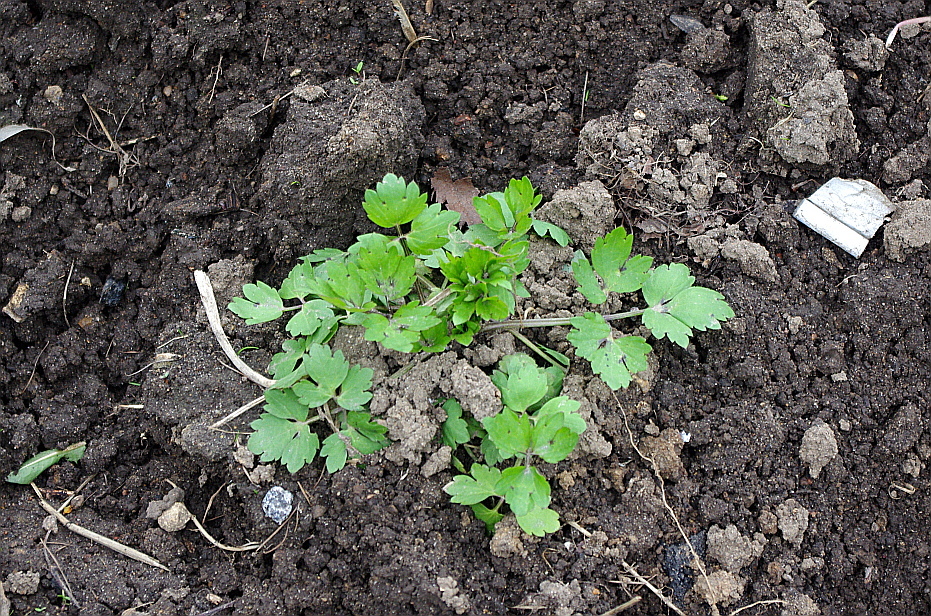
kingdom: Plantae
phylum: Tracheophyta
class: Magnoliopsida
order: Ranunculales
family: Ranunculaceae
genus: Ranunculus
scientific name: Ranunculus repens
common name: Creeping buttercup
